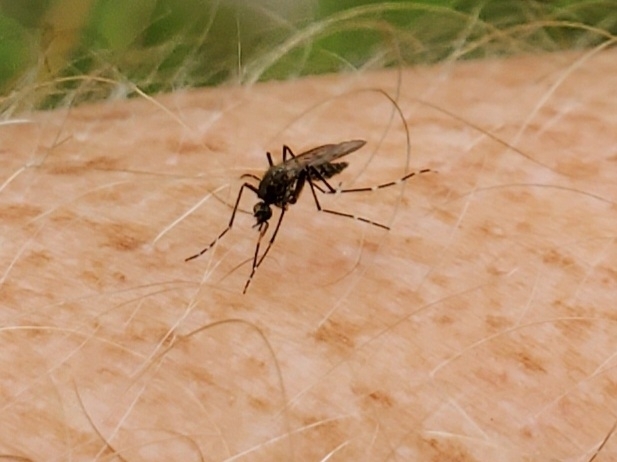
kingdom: Animalia
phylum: Arthropoda
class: Insecta
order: Diptera
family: Culicidae
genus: Psorophora
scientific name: Psorophora columbiae
